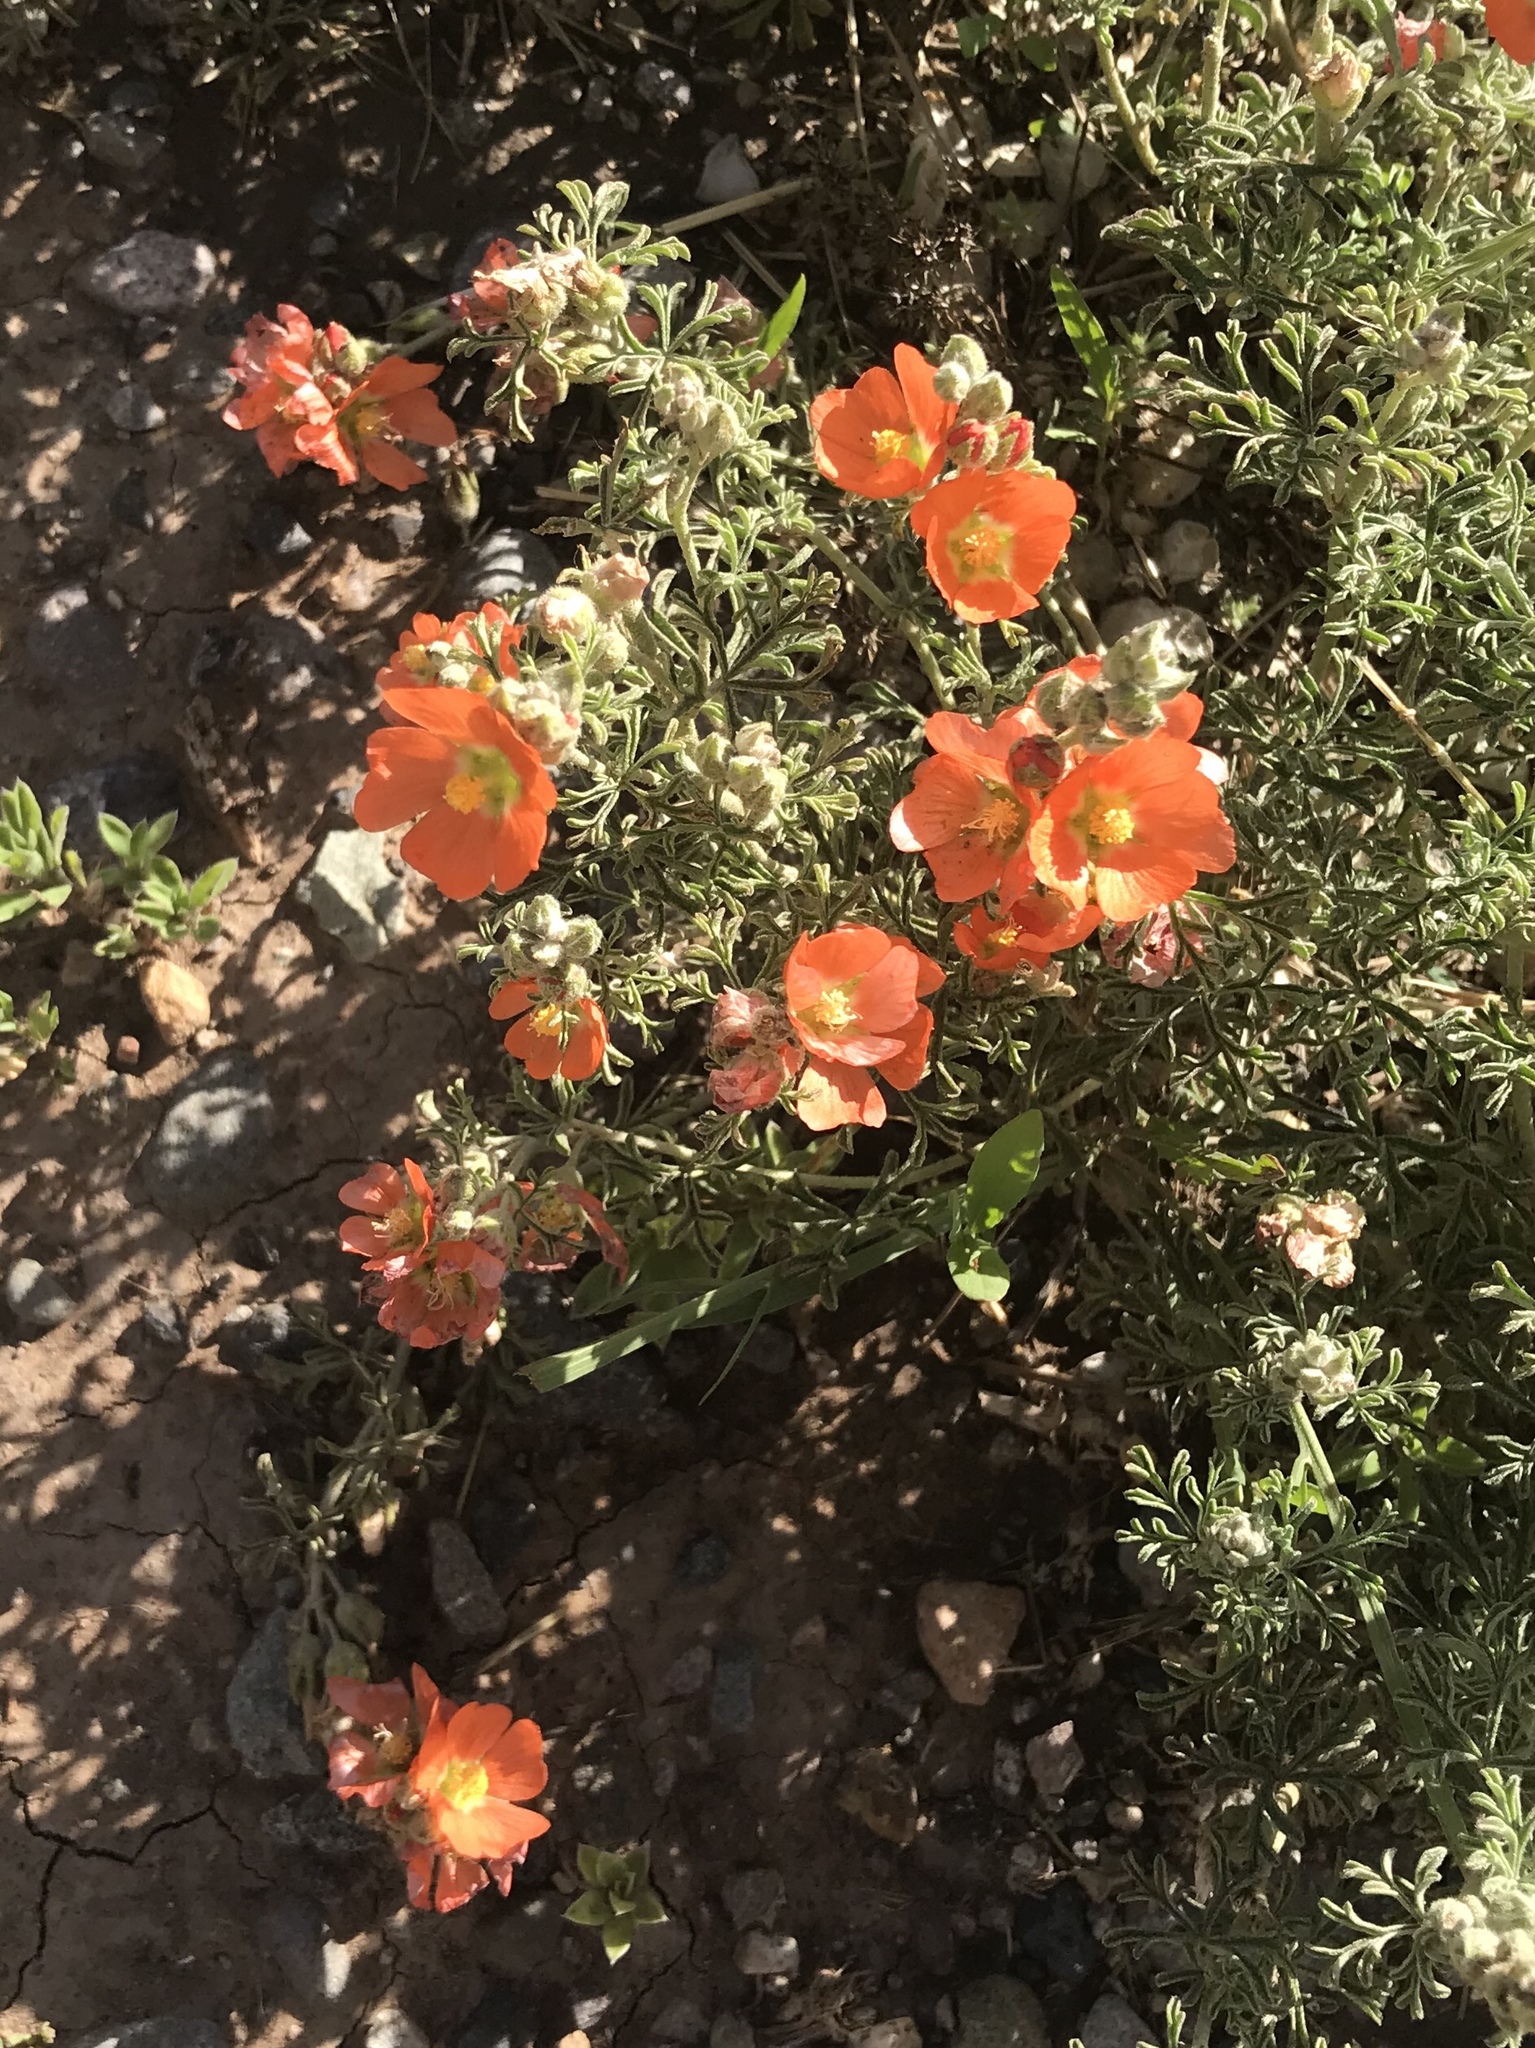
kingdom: Plantae
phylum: Tracheophyta
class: Magnoliopsida
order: Malvales
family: Malvaceae
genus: Sphaeralcea
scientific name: Sphaeralcea coccinea
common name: Moss-rose
